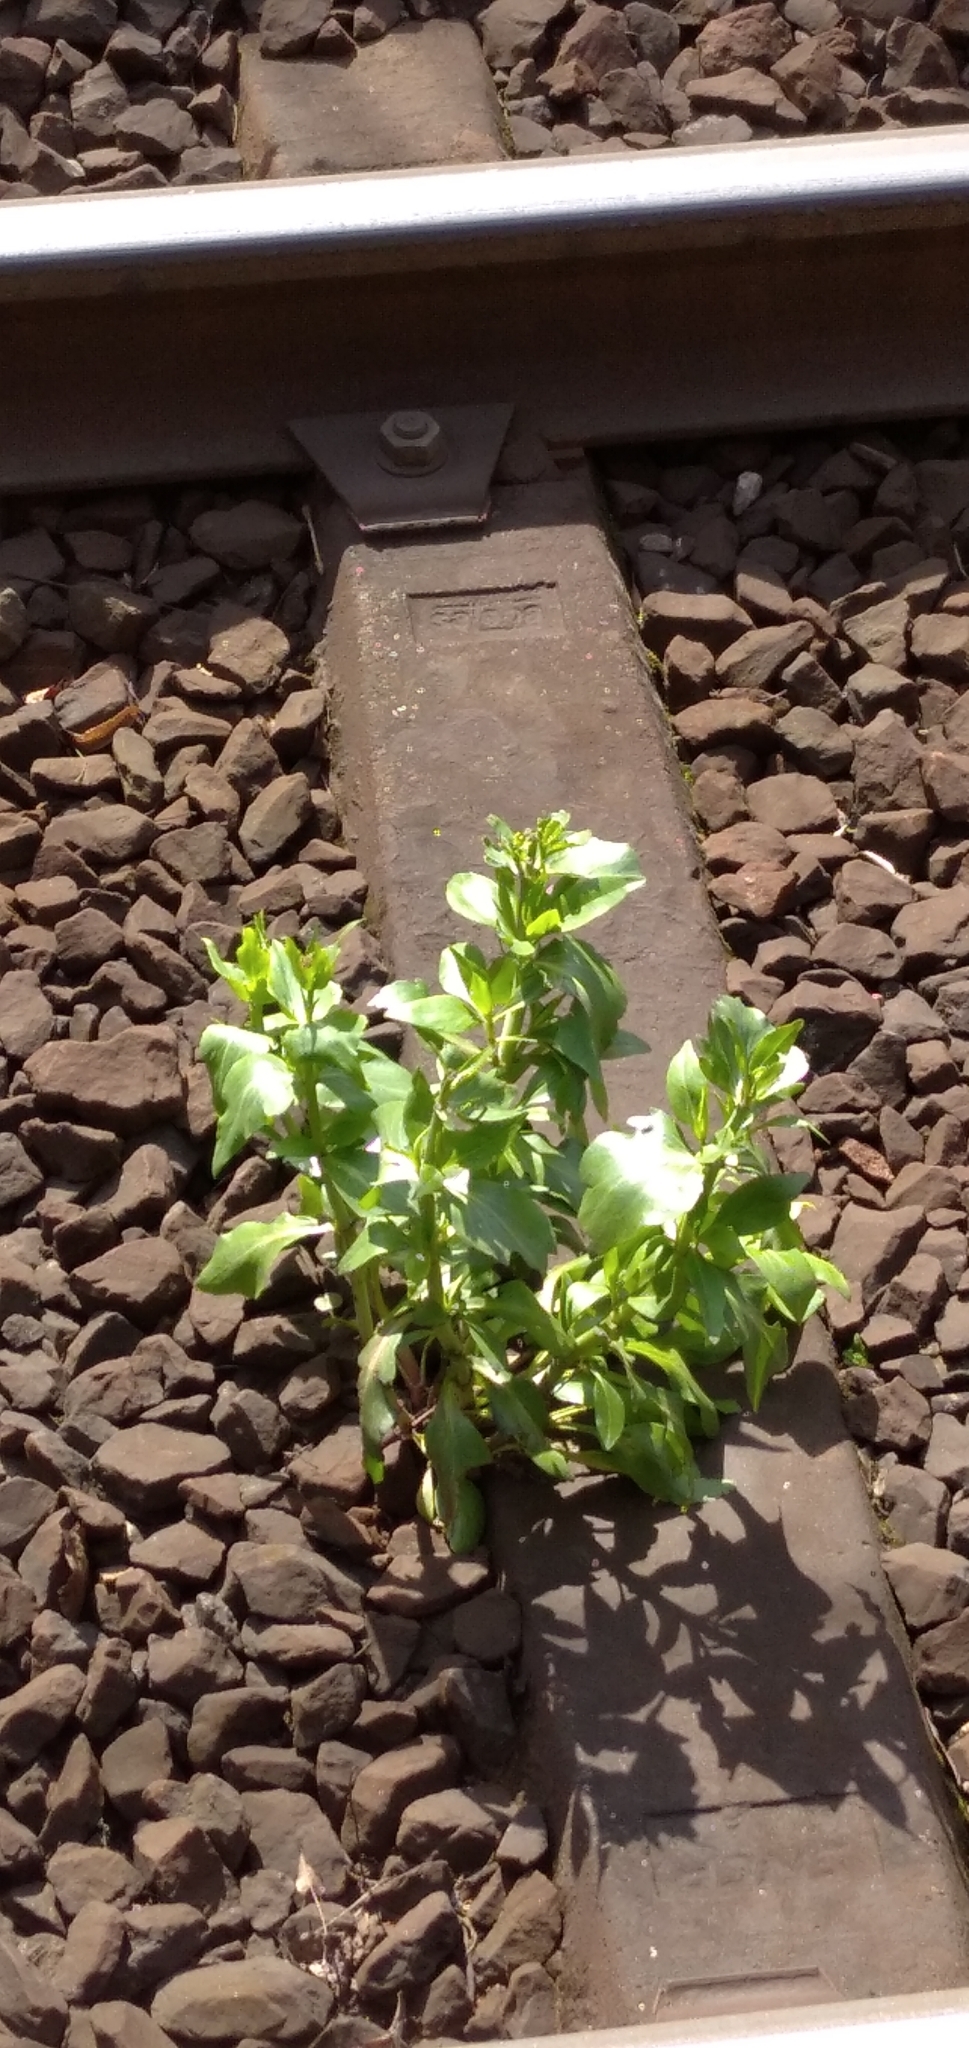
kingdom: Plantae
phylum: Tracheophyta
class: Magnoliopsida
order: Dipsacales
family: Caprifoliaceae
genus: Centranthus
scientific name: Centranthus ruber
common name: Red valerian
